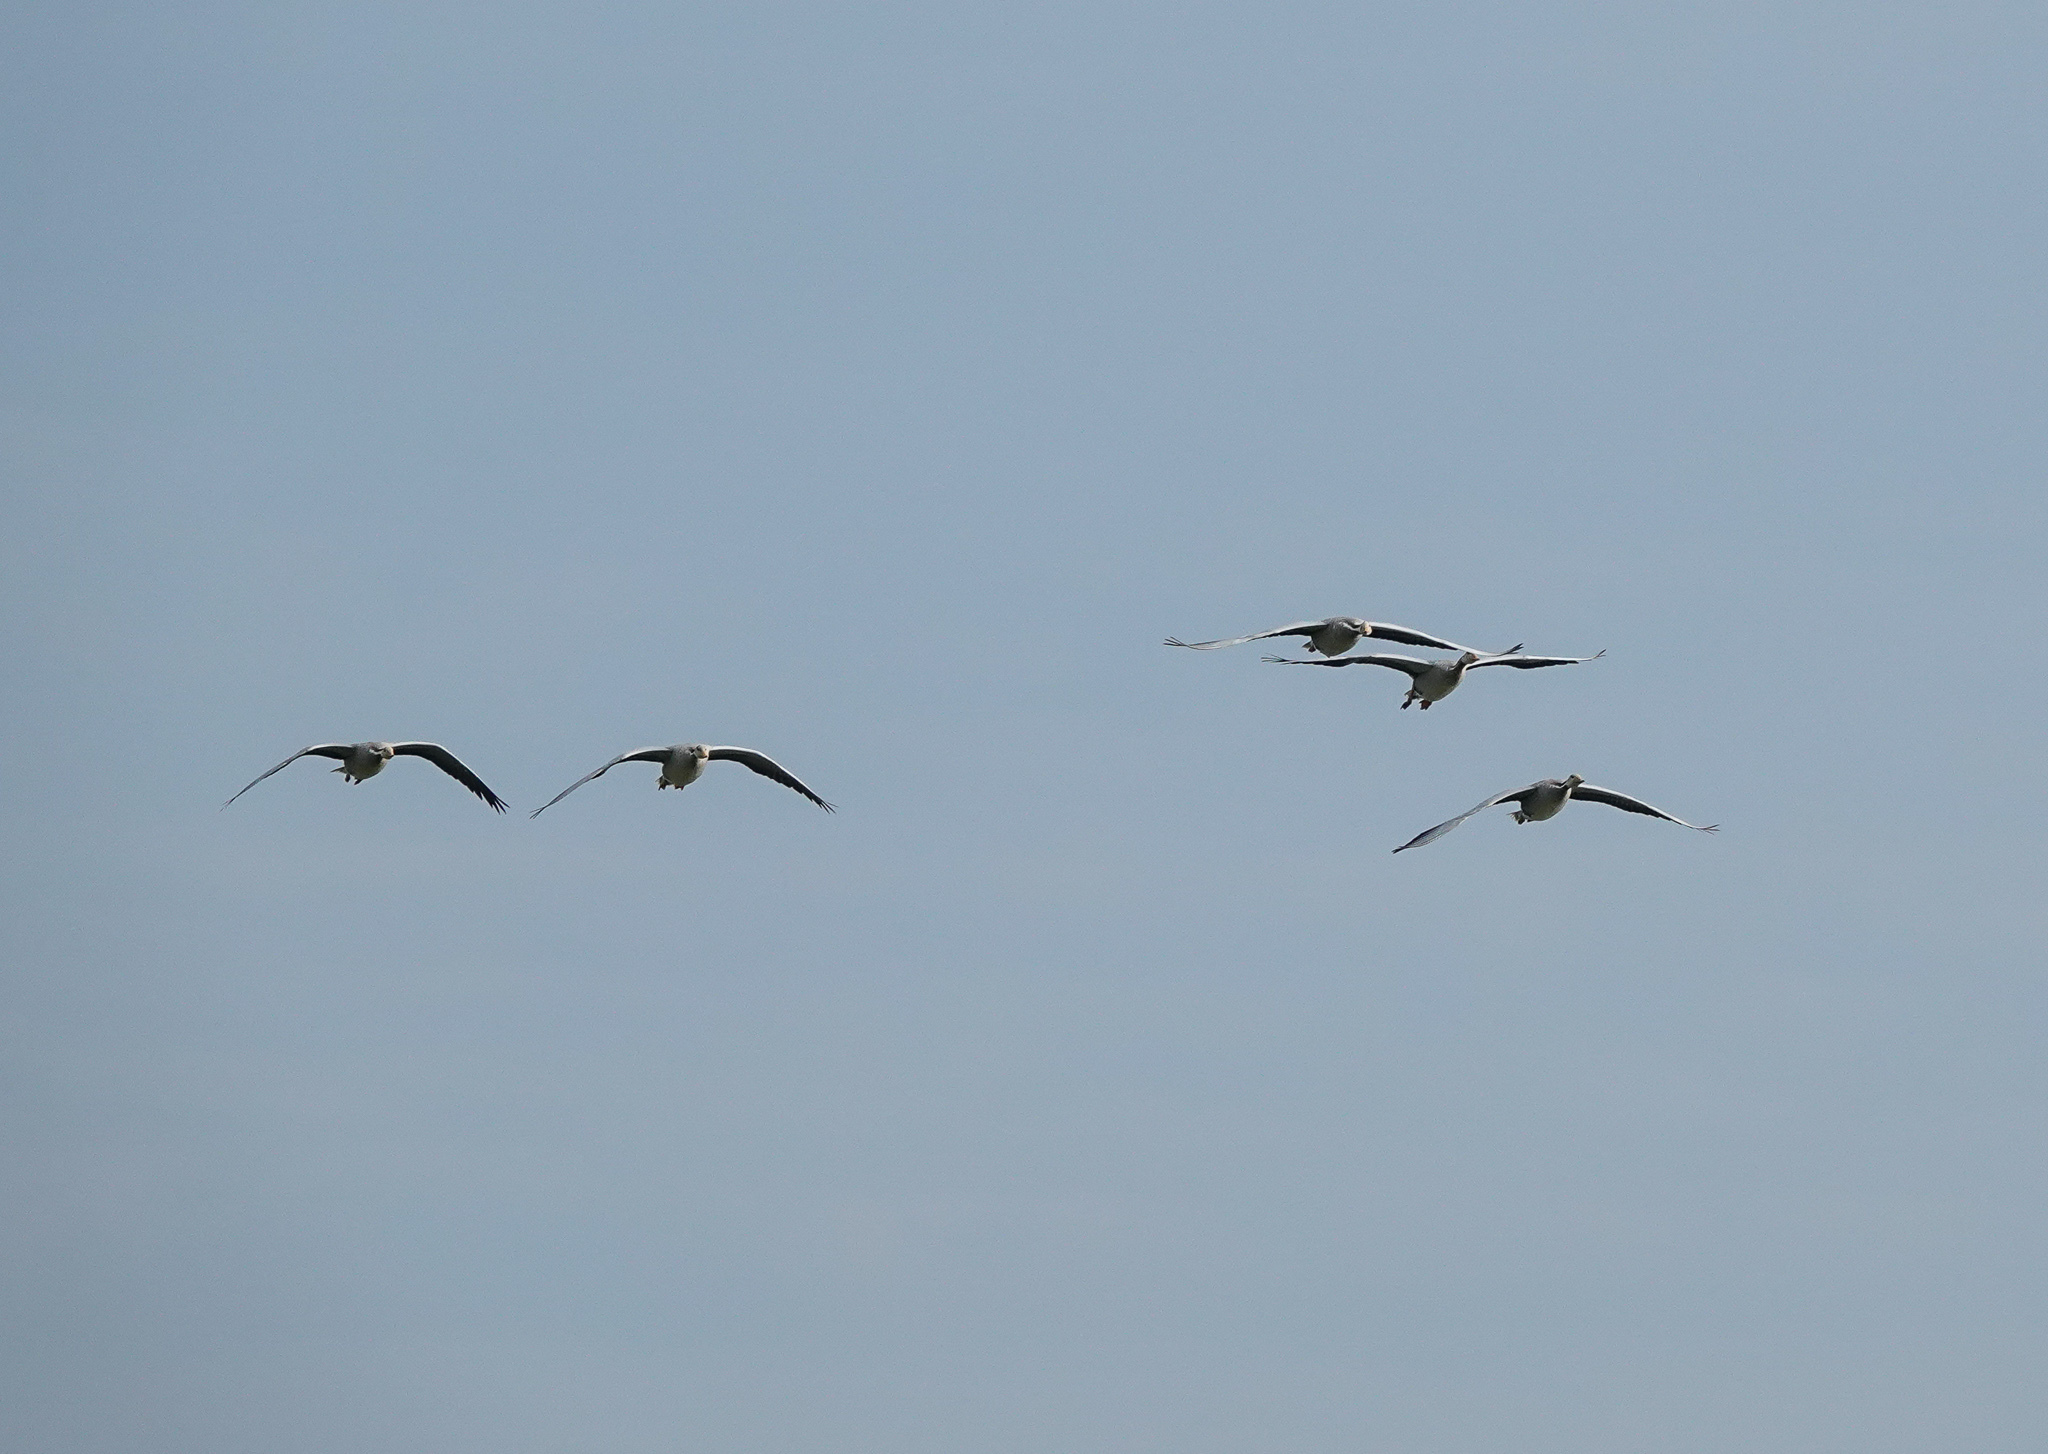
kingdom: Animalia
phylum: Chordata
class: Aves
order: Anseriformes
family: Anatidae
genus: Anser
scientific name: Anser indicus
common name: Bar-headed goose
